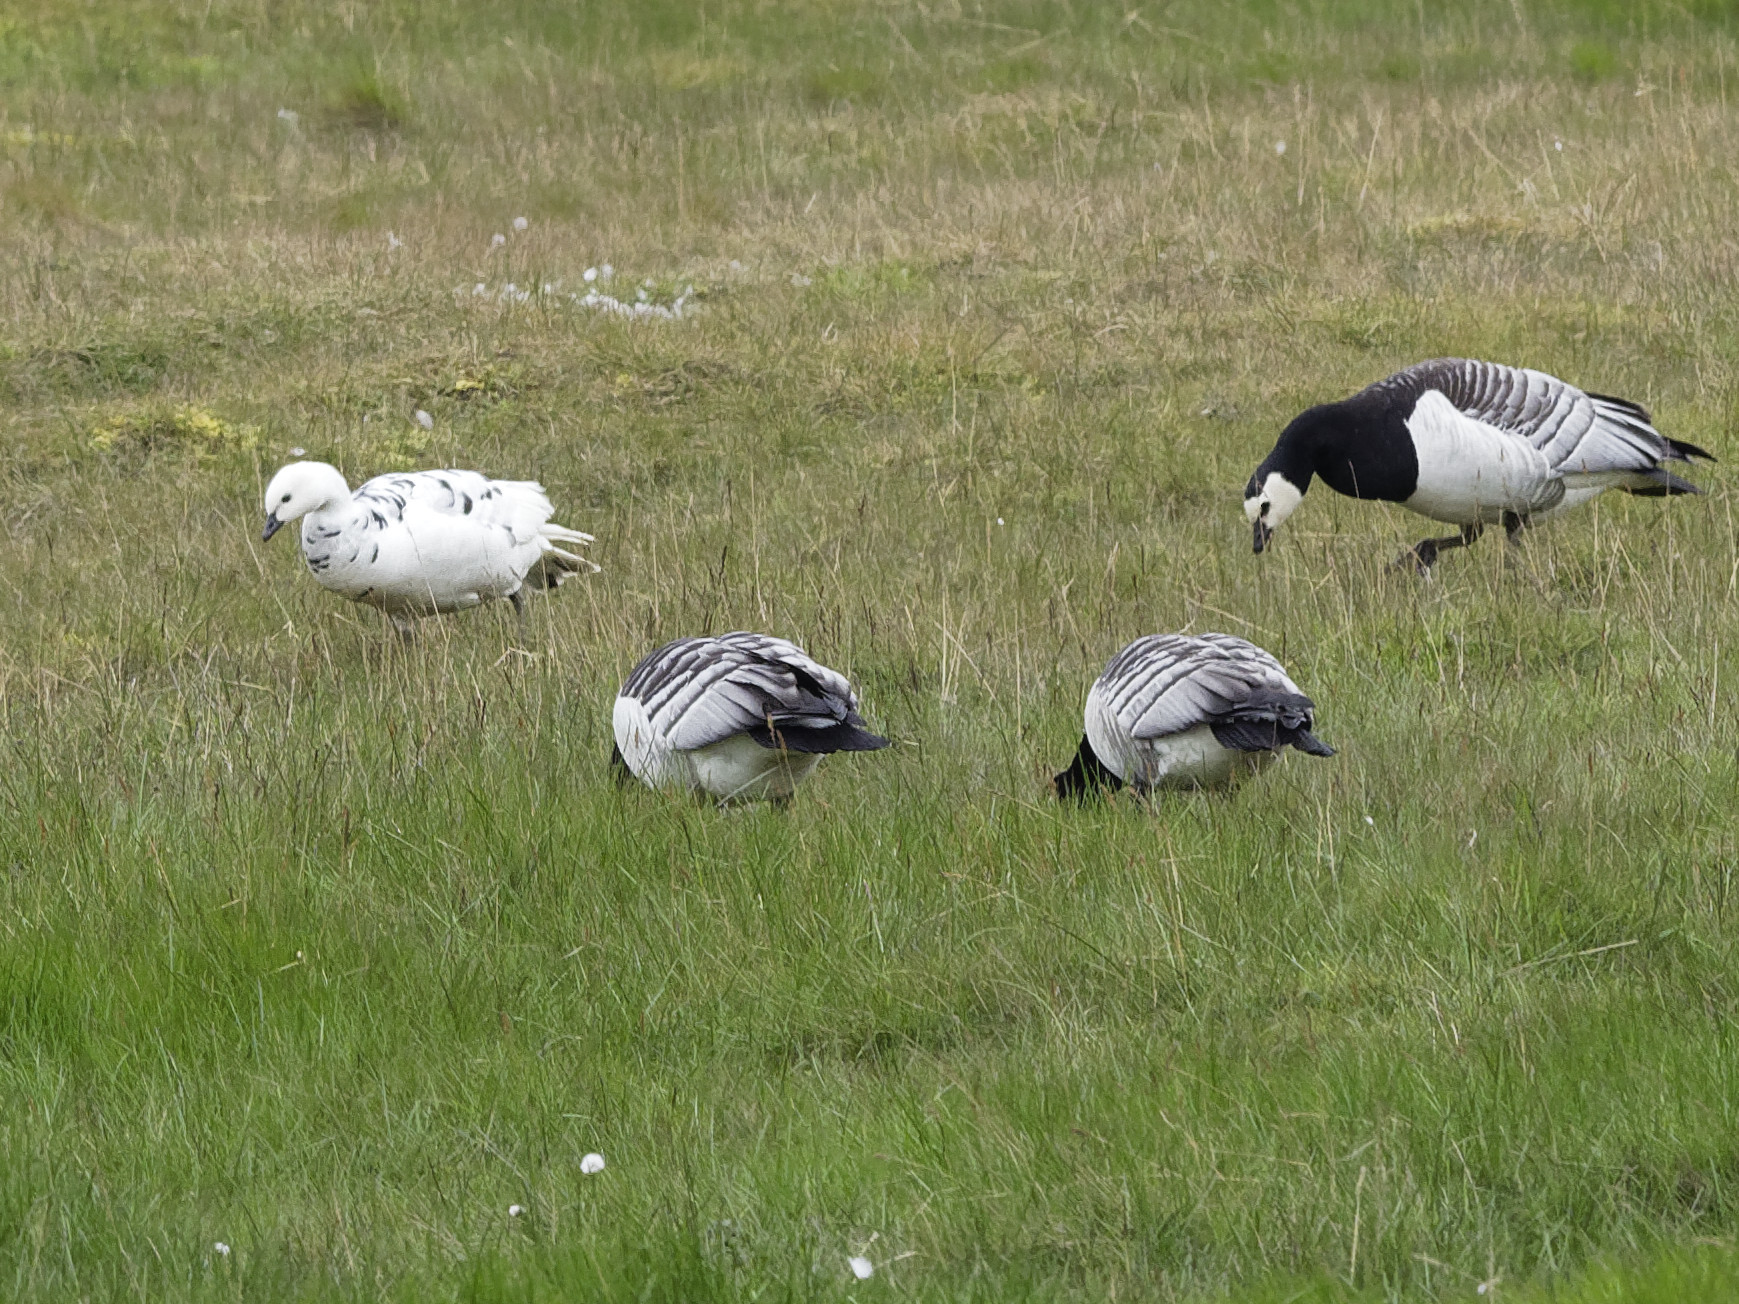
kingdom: Animalia
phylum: Chordata
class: Aves
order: Anseriformes
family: Anatidae
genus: Branta
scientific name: Branta leucopsis
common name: Barnacle goose
